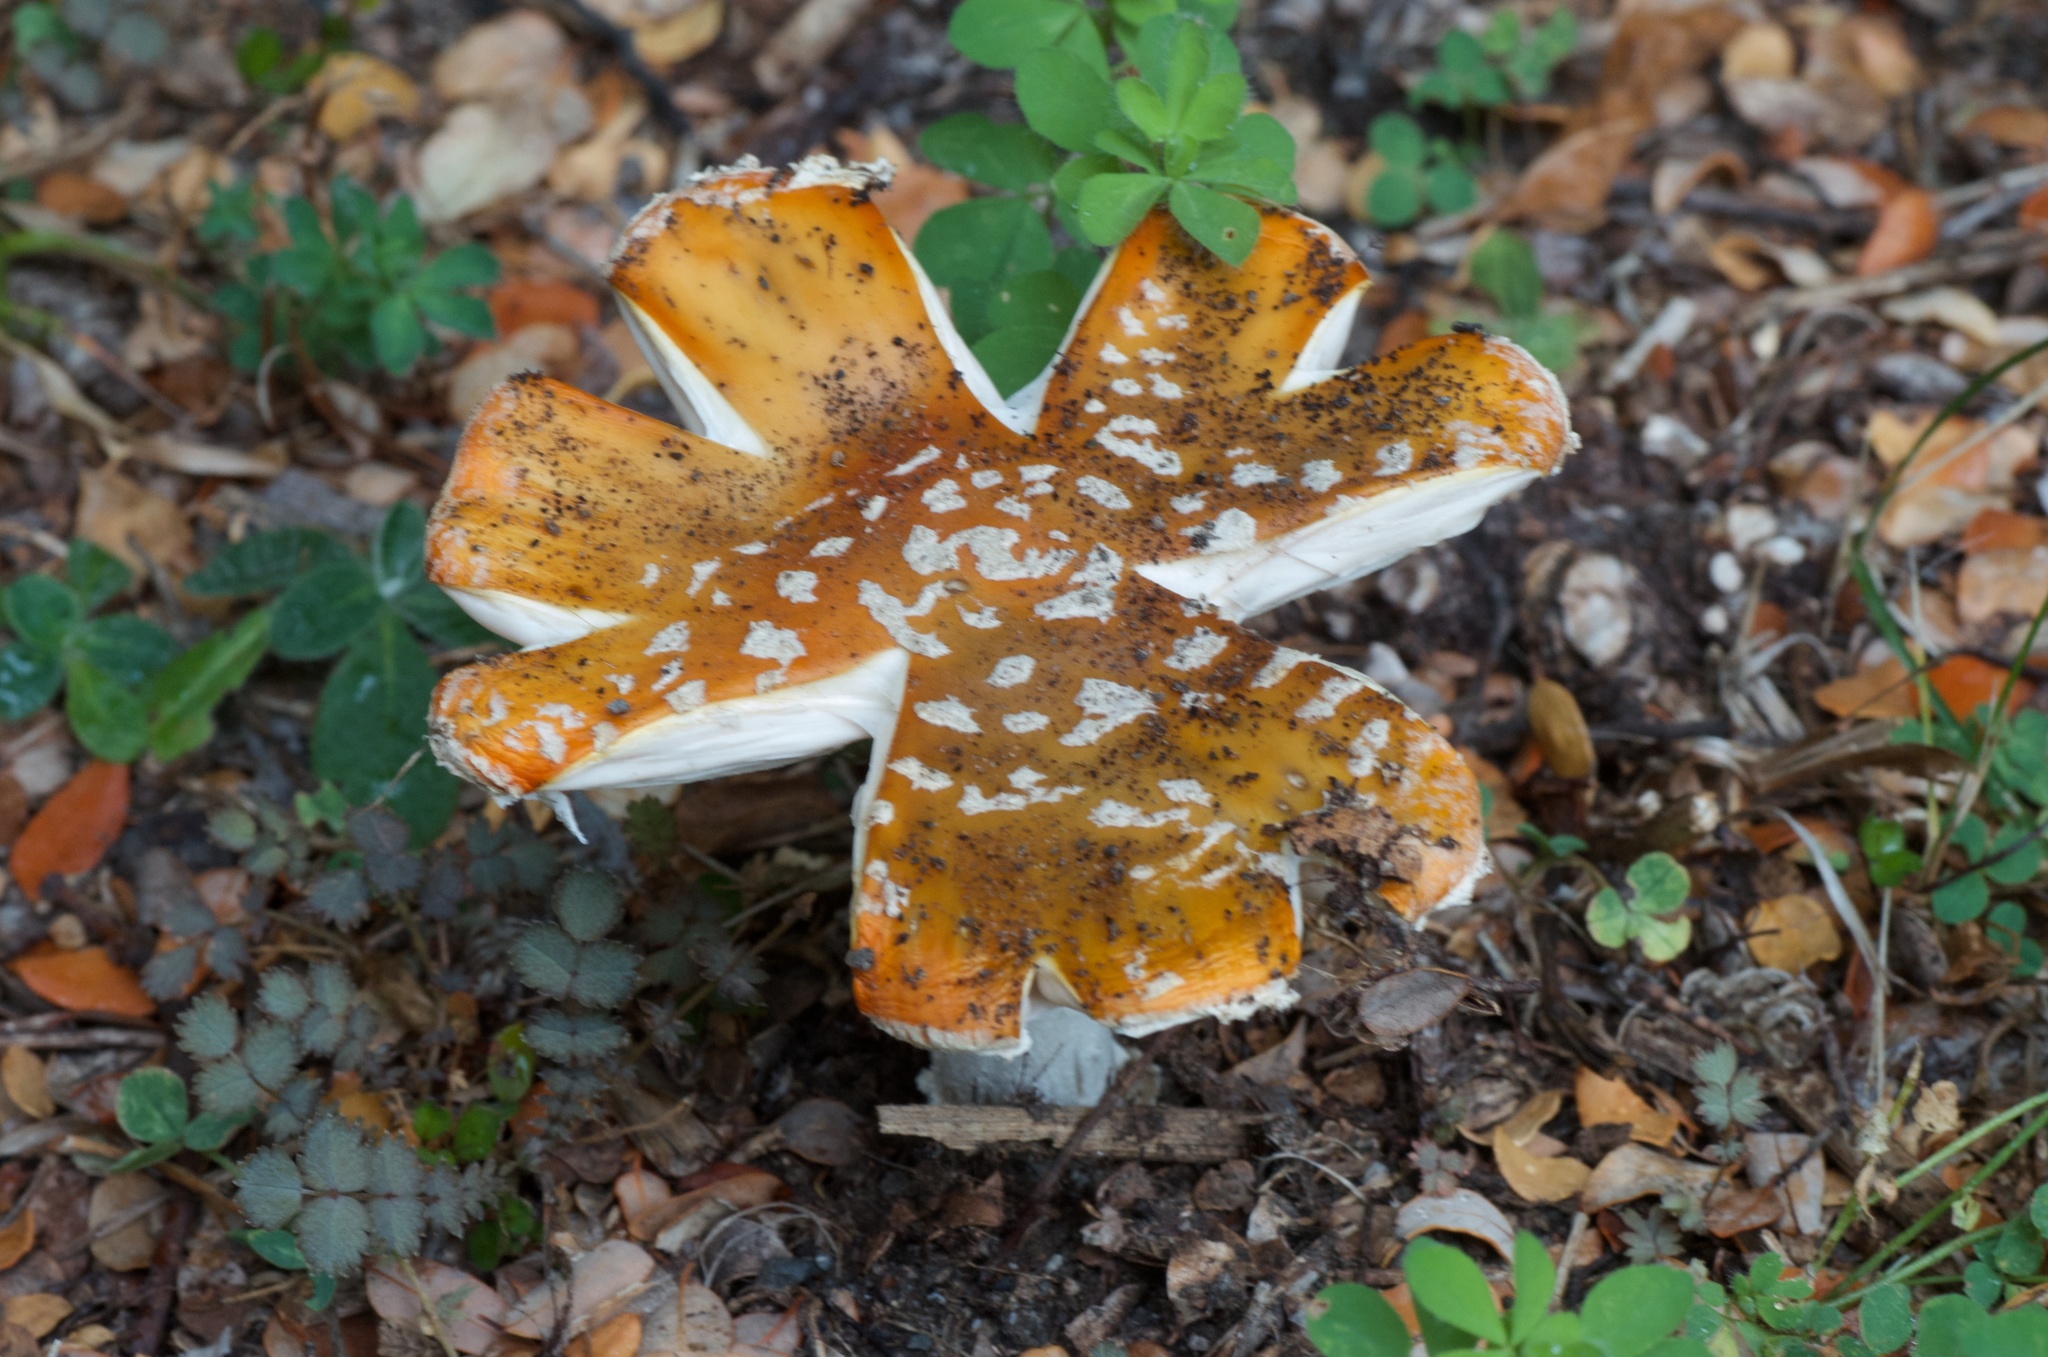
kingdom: Fungi
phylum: Basidiomycota
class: Agaricomycetes
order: Agaricales
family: Amanitaceae
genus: Amanita
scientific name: Amanita muscaria
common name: Fly agaric
